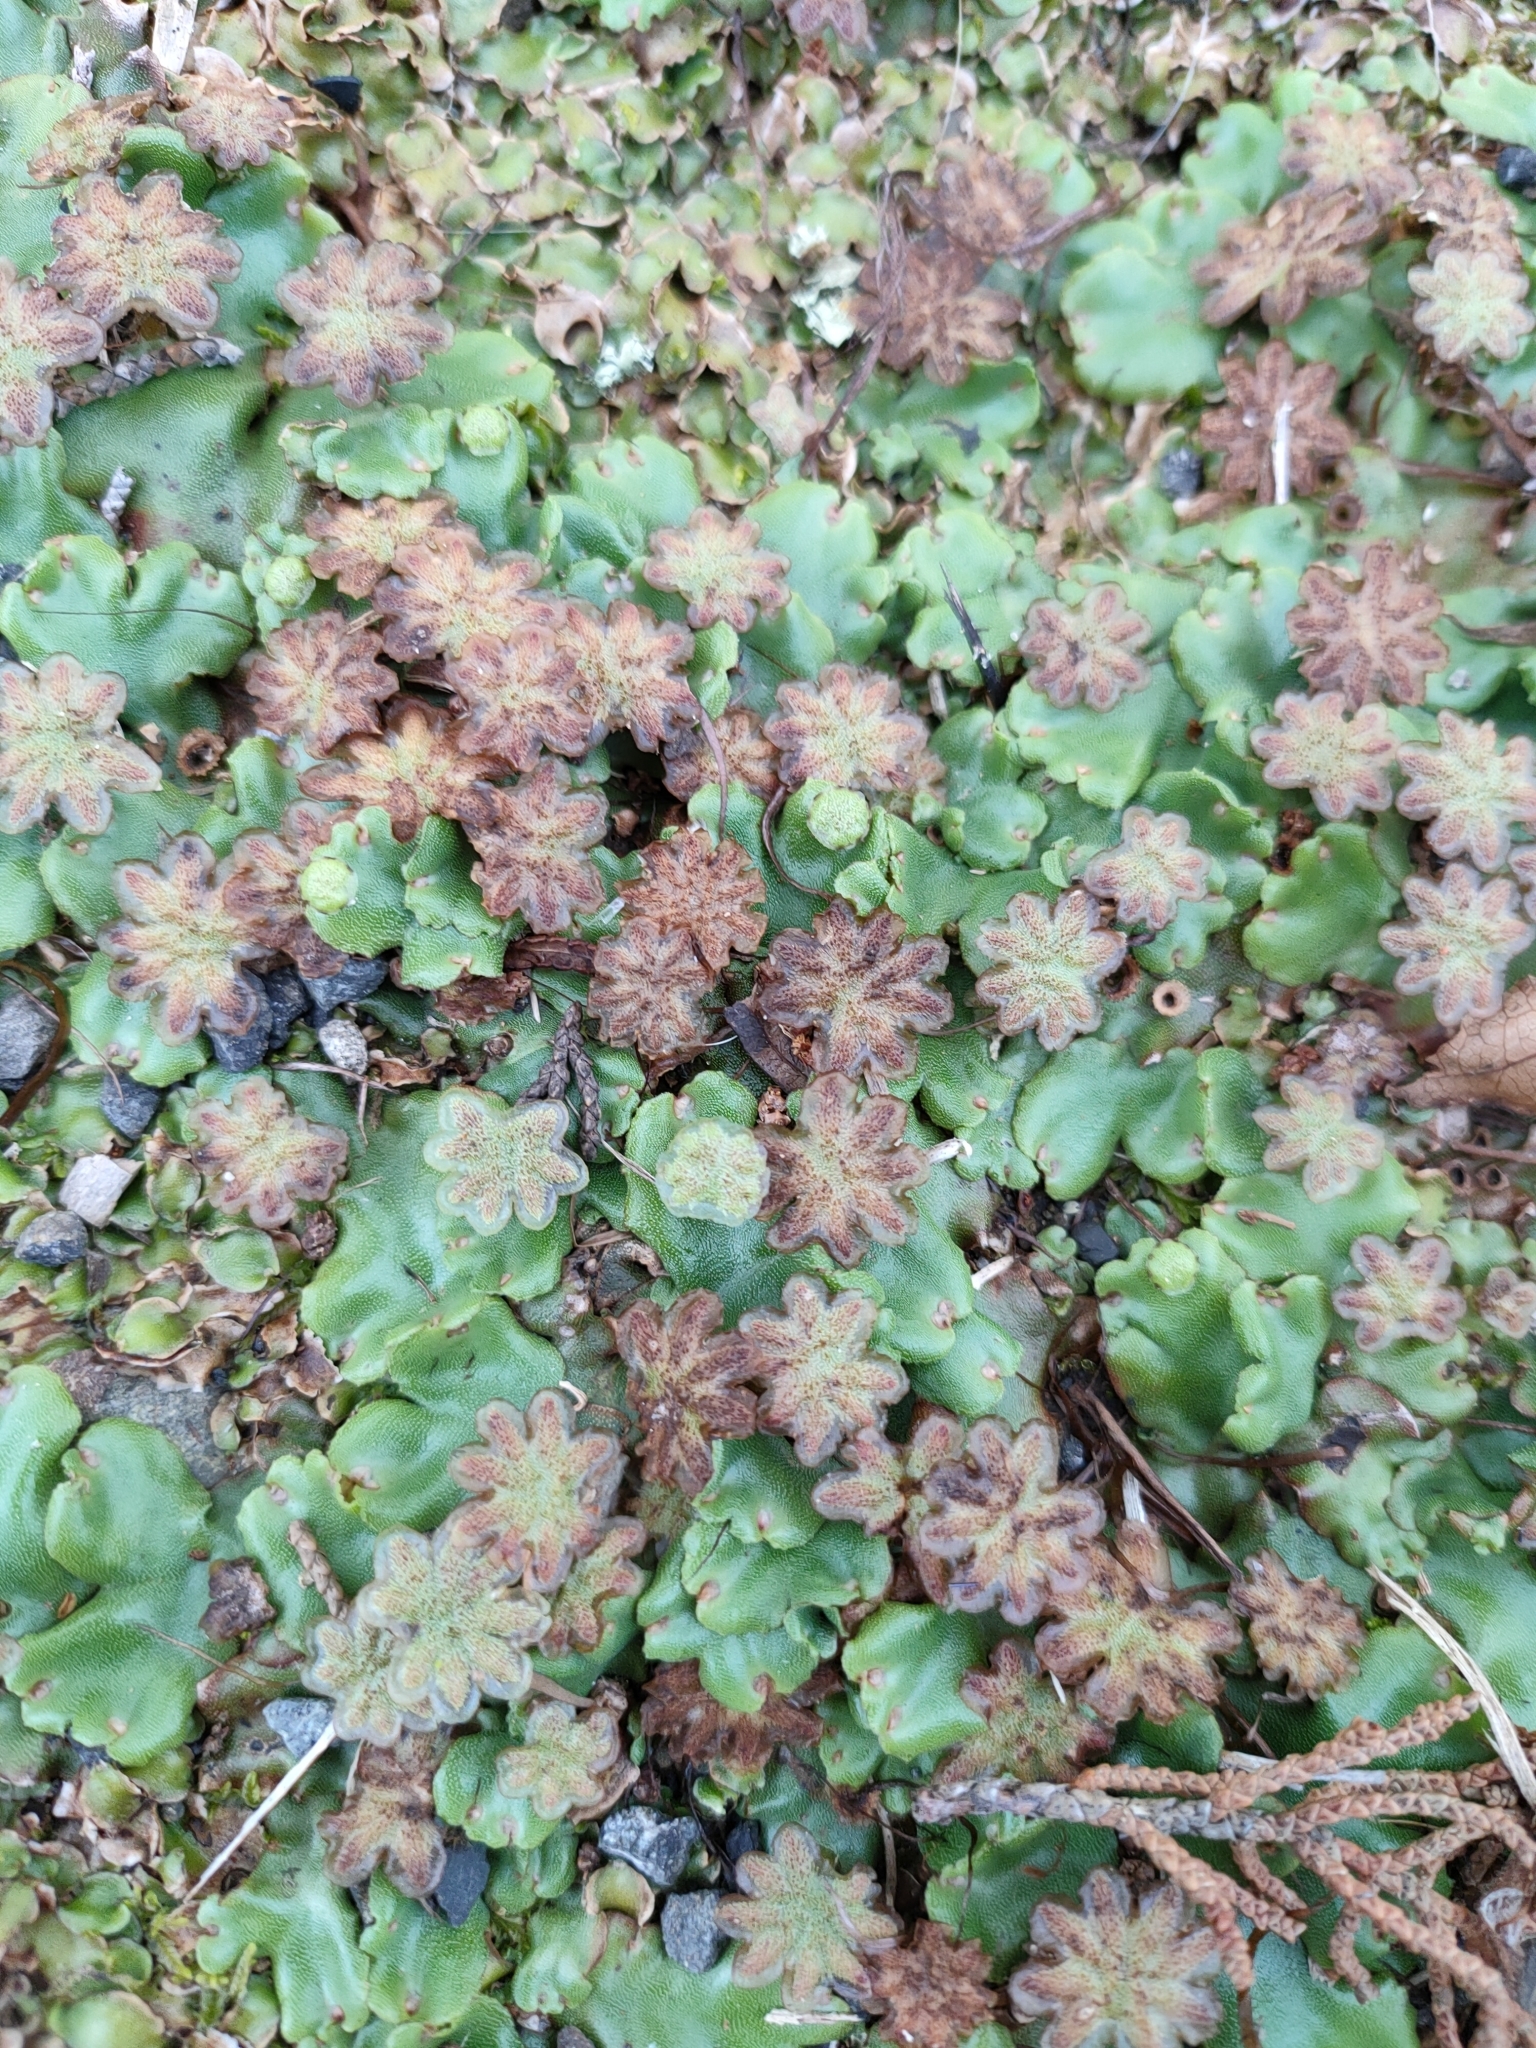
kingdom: Plantae
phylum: Marchantiophyta
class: Marchantiopsida
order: Marchantiales
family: Marchantiaceae
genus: Marchantia
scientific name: Marchantia berteroana
